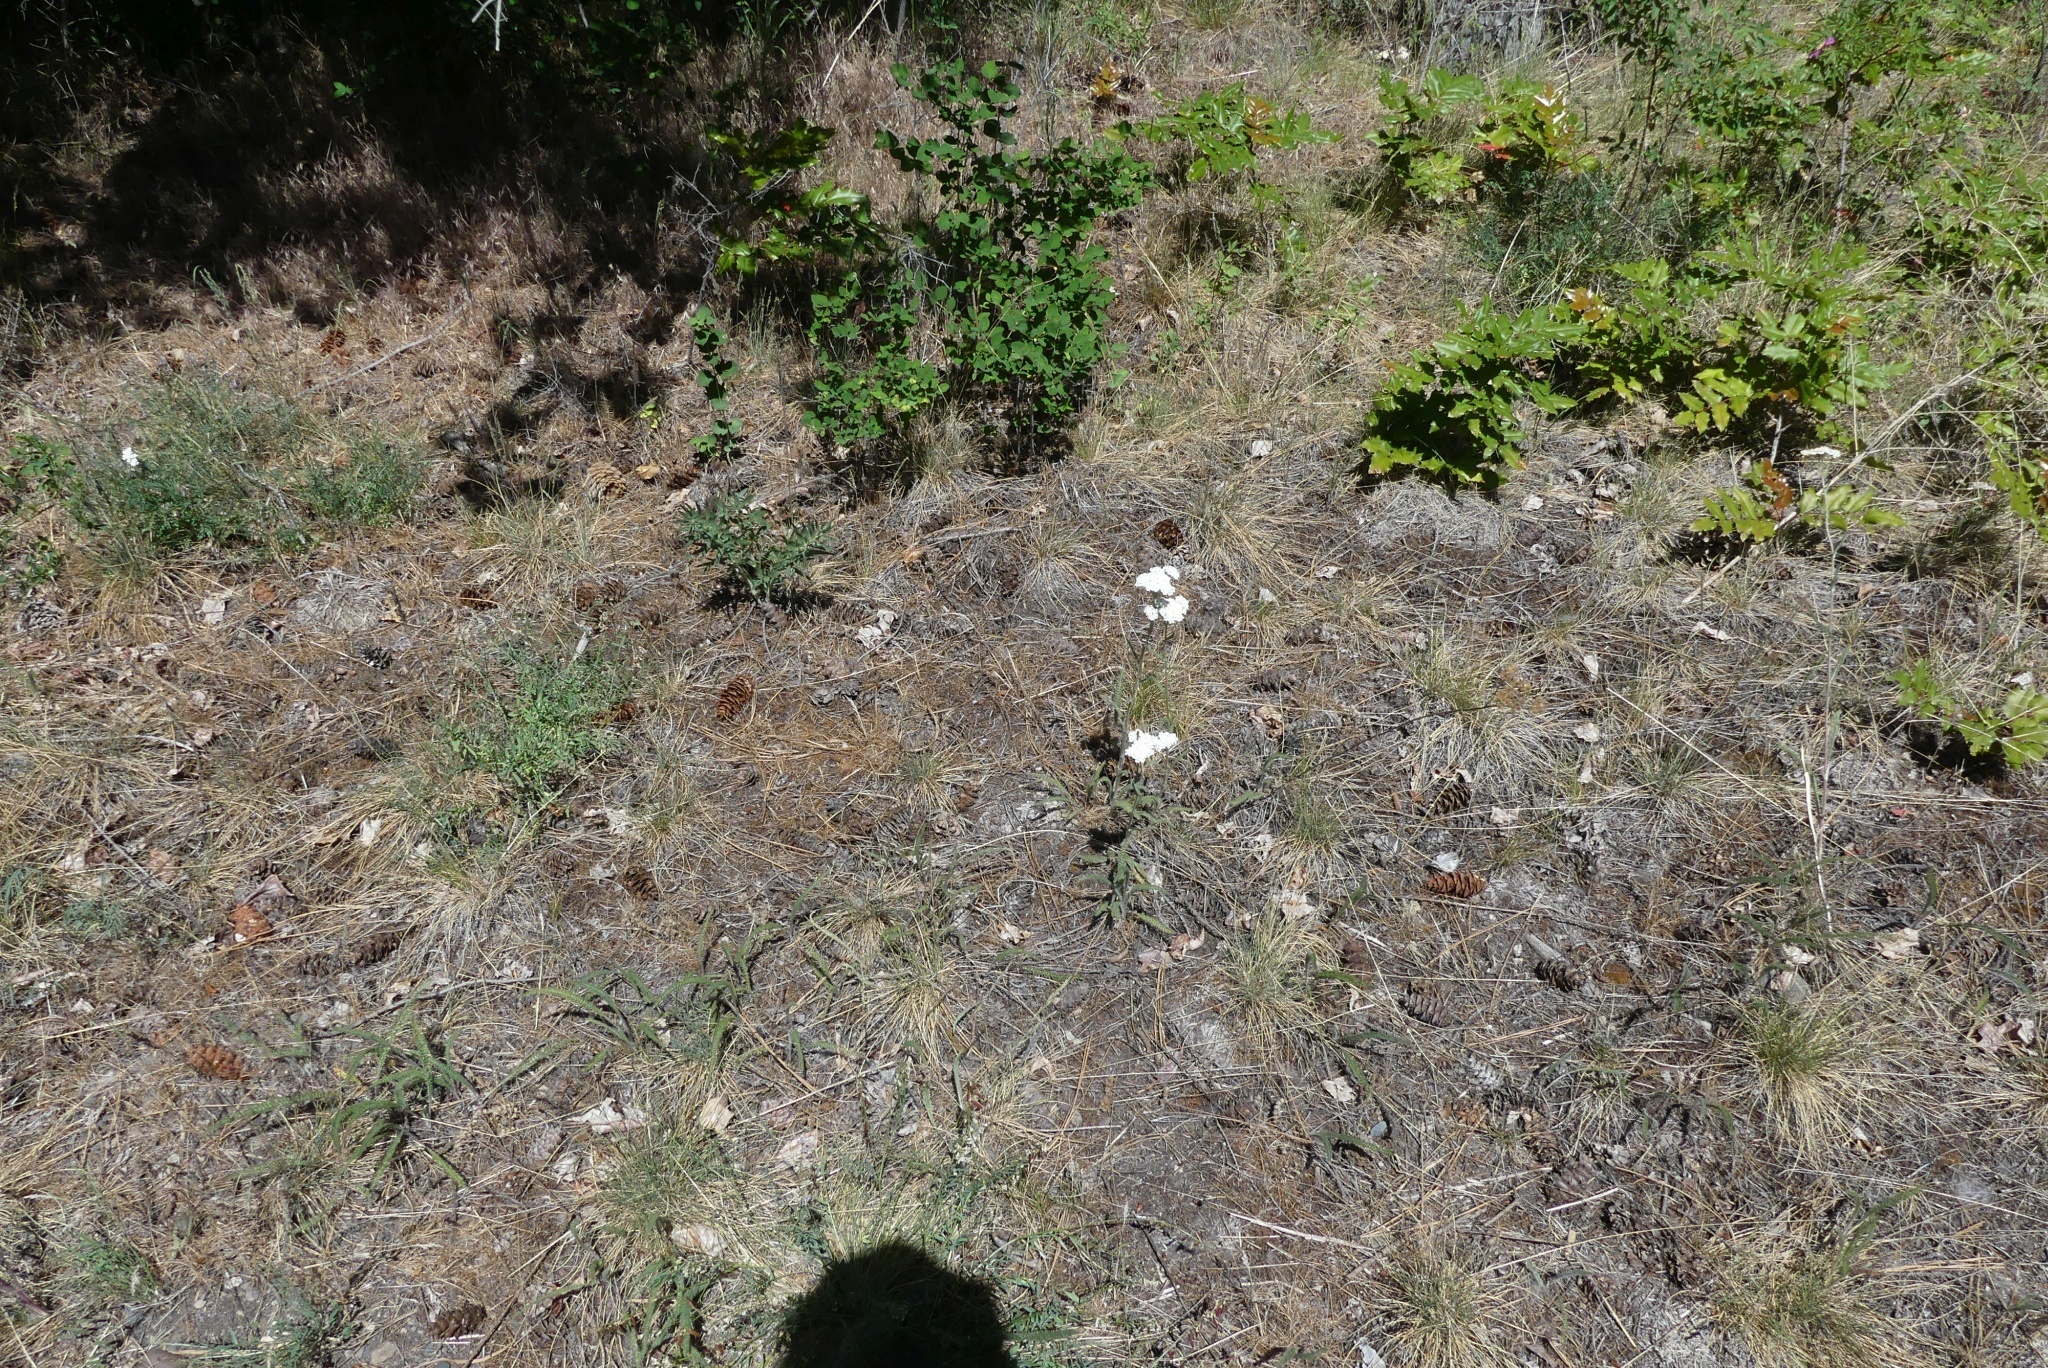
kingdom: Plantae
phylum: Tracheophyta
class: Magnoliopsida
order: Asterales
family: Asteraceae
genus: Achillea
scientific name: Achillea millefolium
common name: Yarrow
